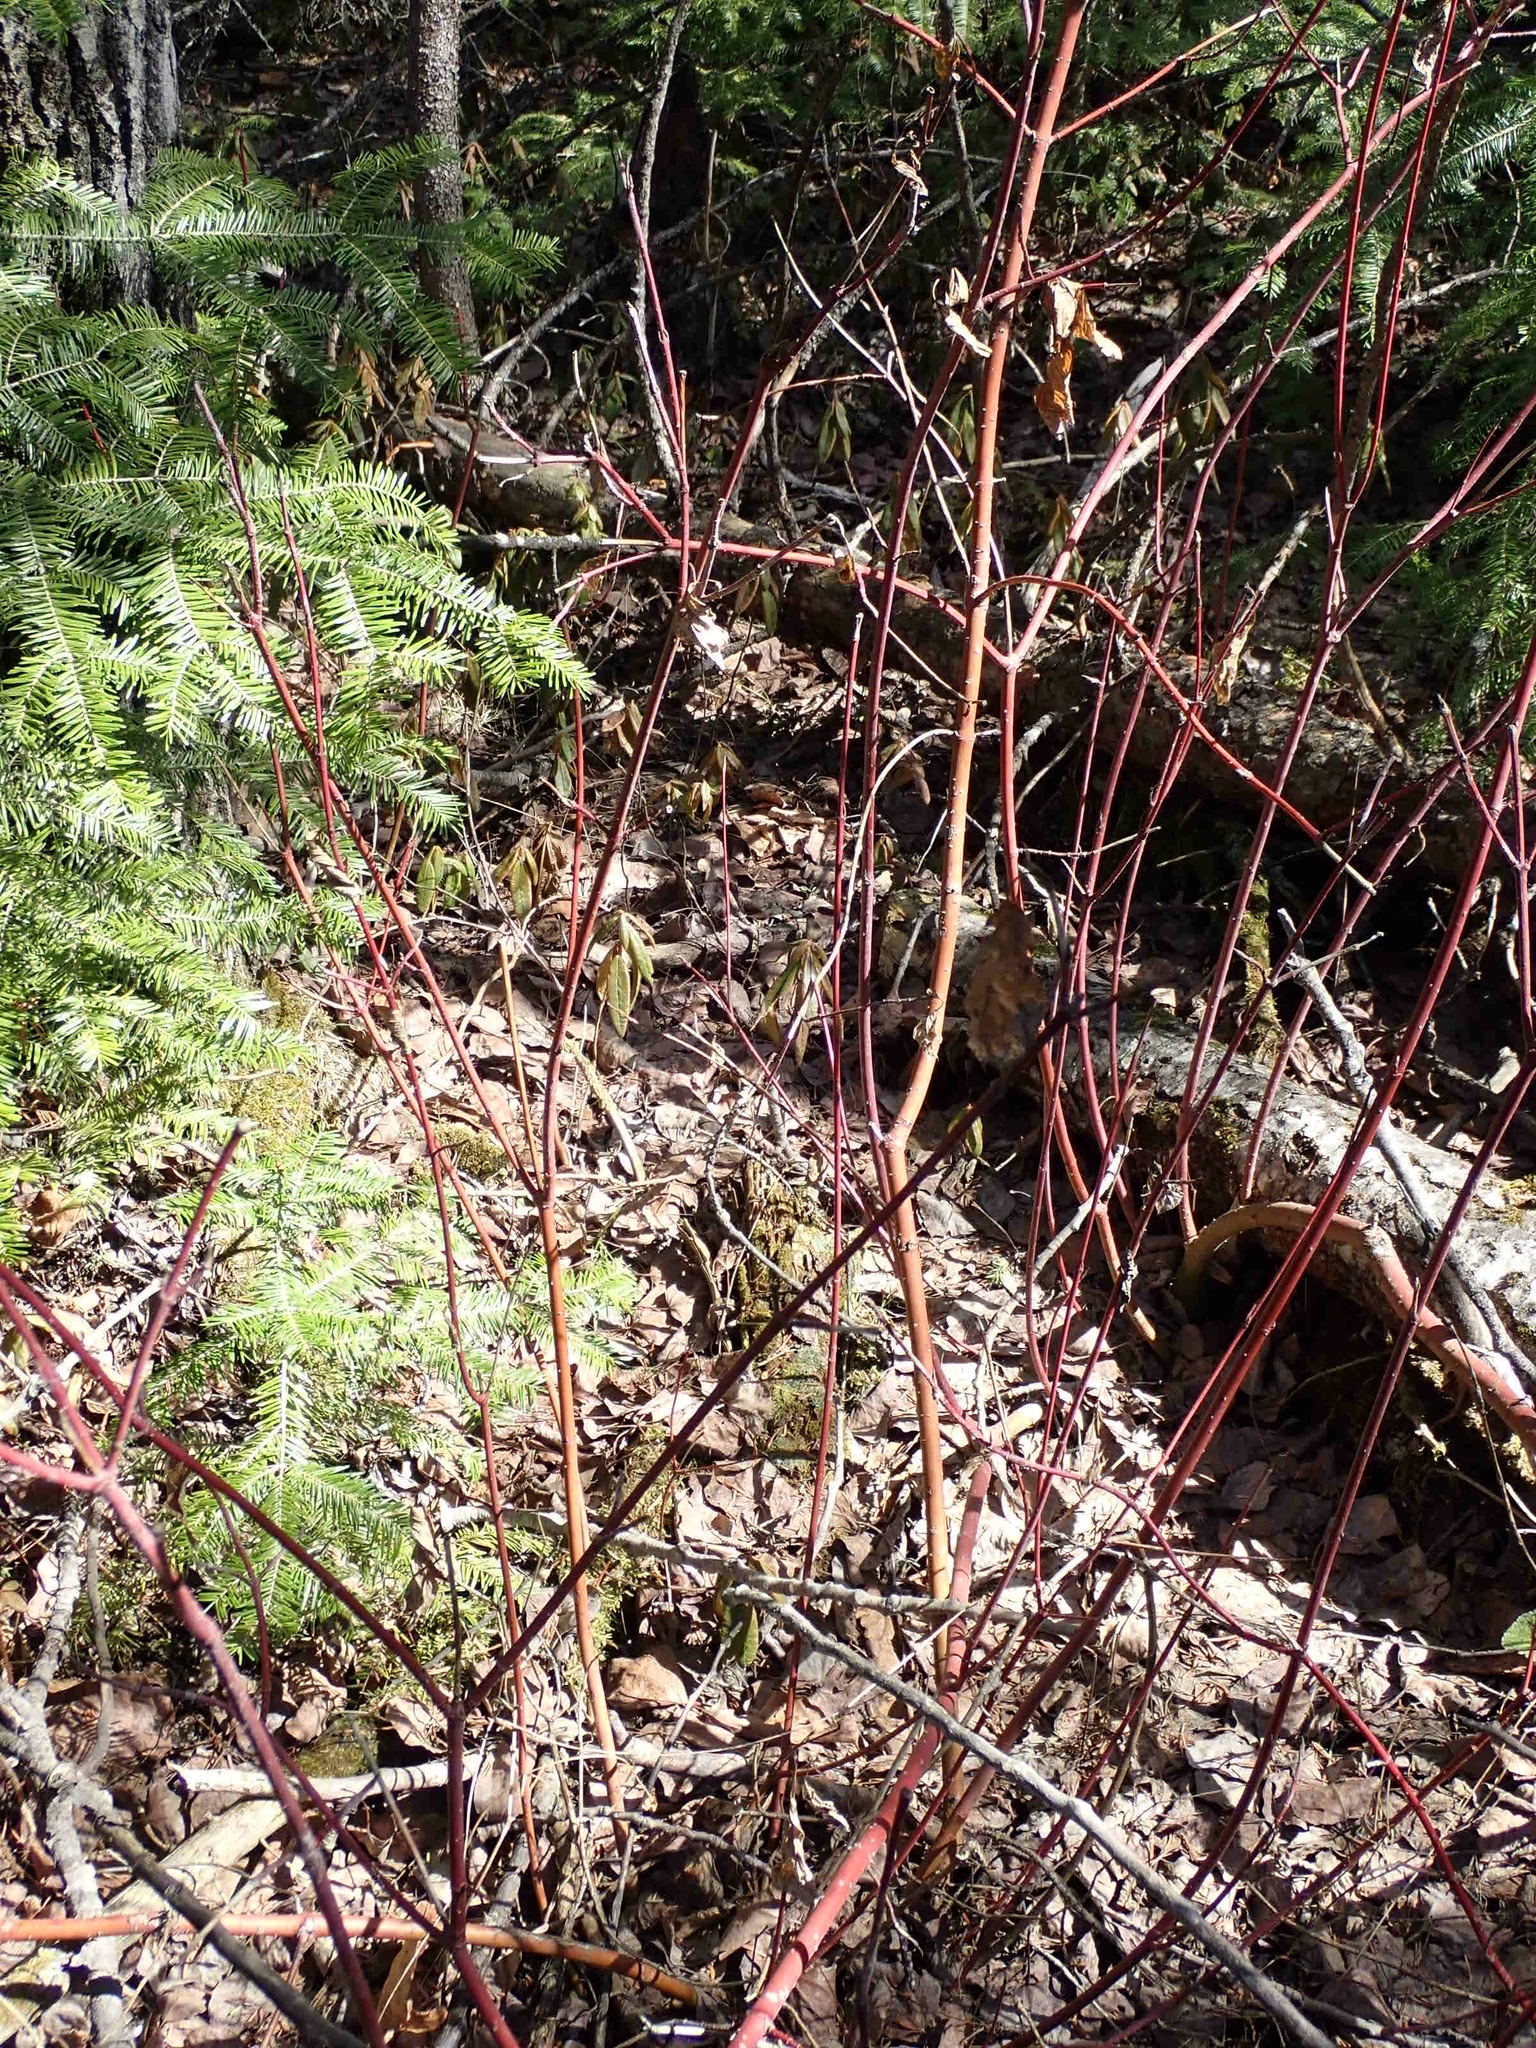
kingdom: Plantae
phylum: Tracheophyta
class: Magnoliopsida
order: Cornales
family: Cornaceae
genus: Cornus
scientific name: Cornus sericea
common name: Red-osier dogwood
